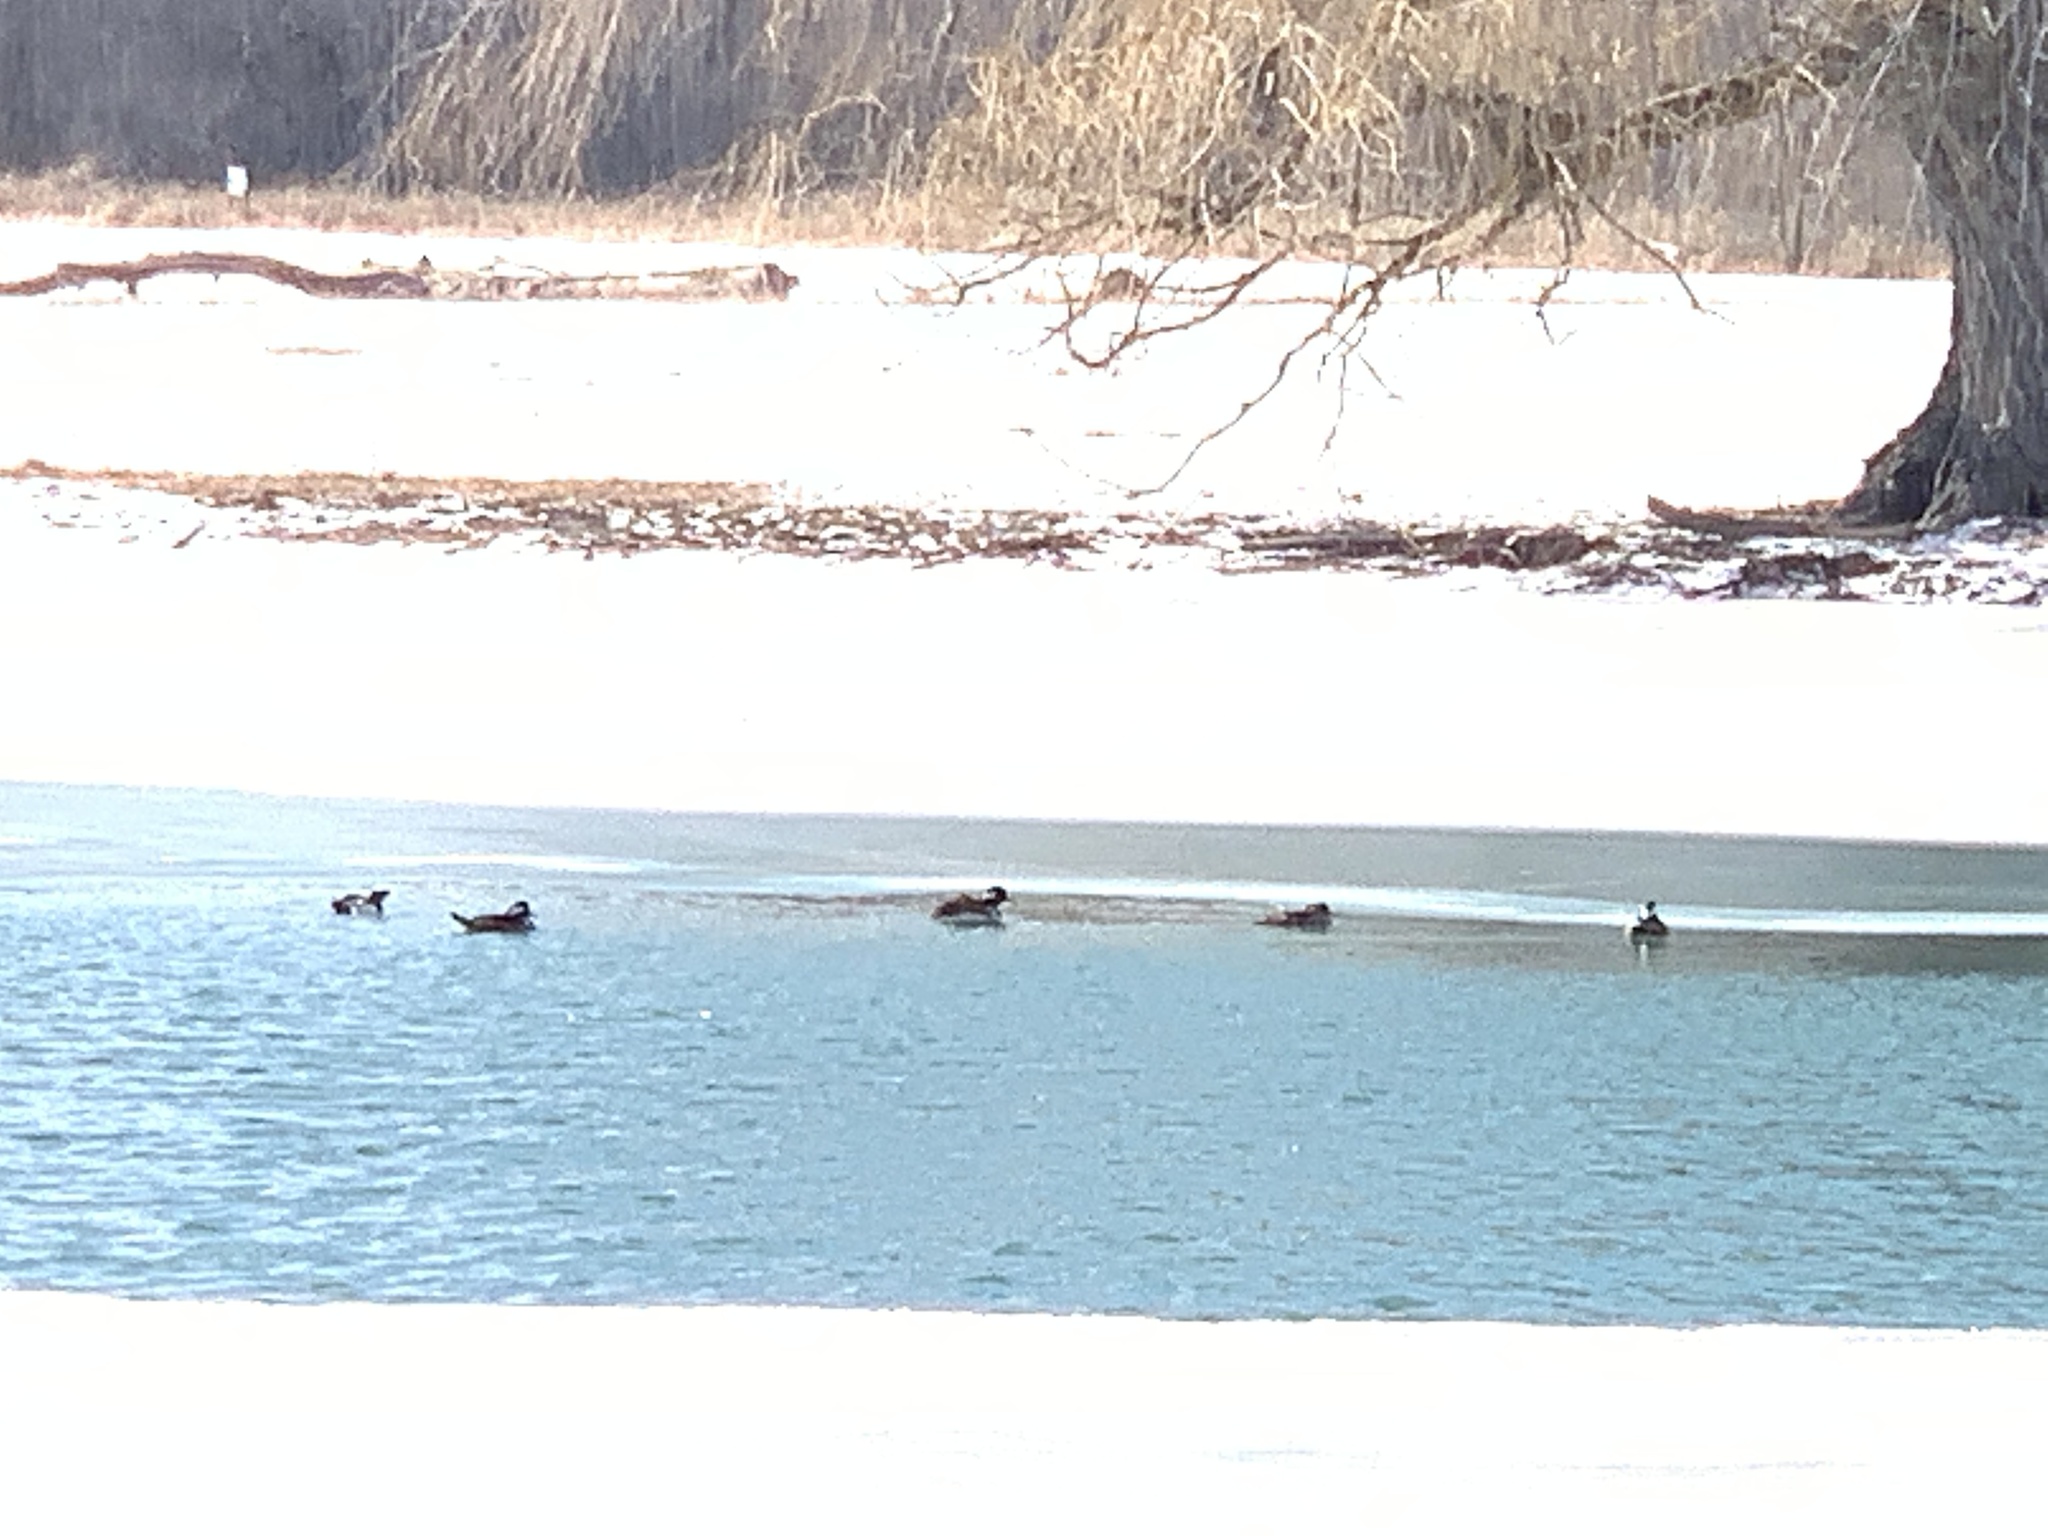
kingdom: Animalia
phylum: Chordata
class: Aves
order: Anseriformes
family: Anatidae
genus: Lophodytes
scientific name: Lophodytes cucullatus
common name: Hooded merganser
